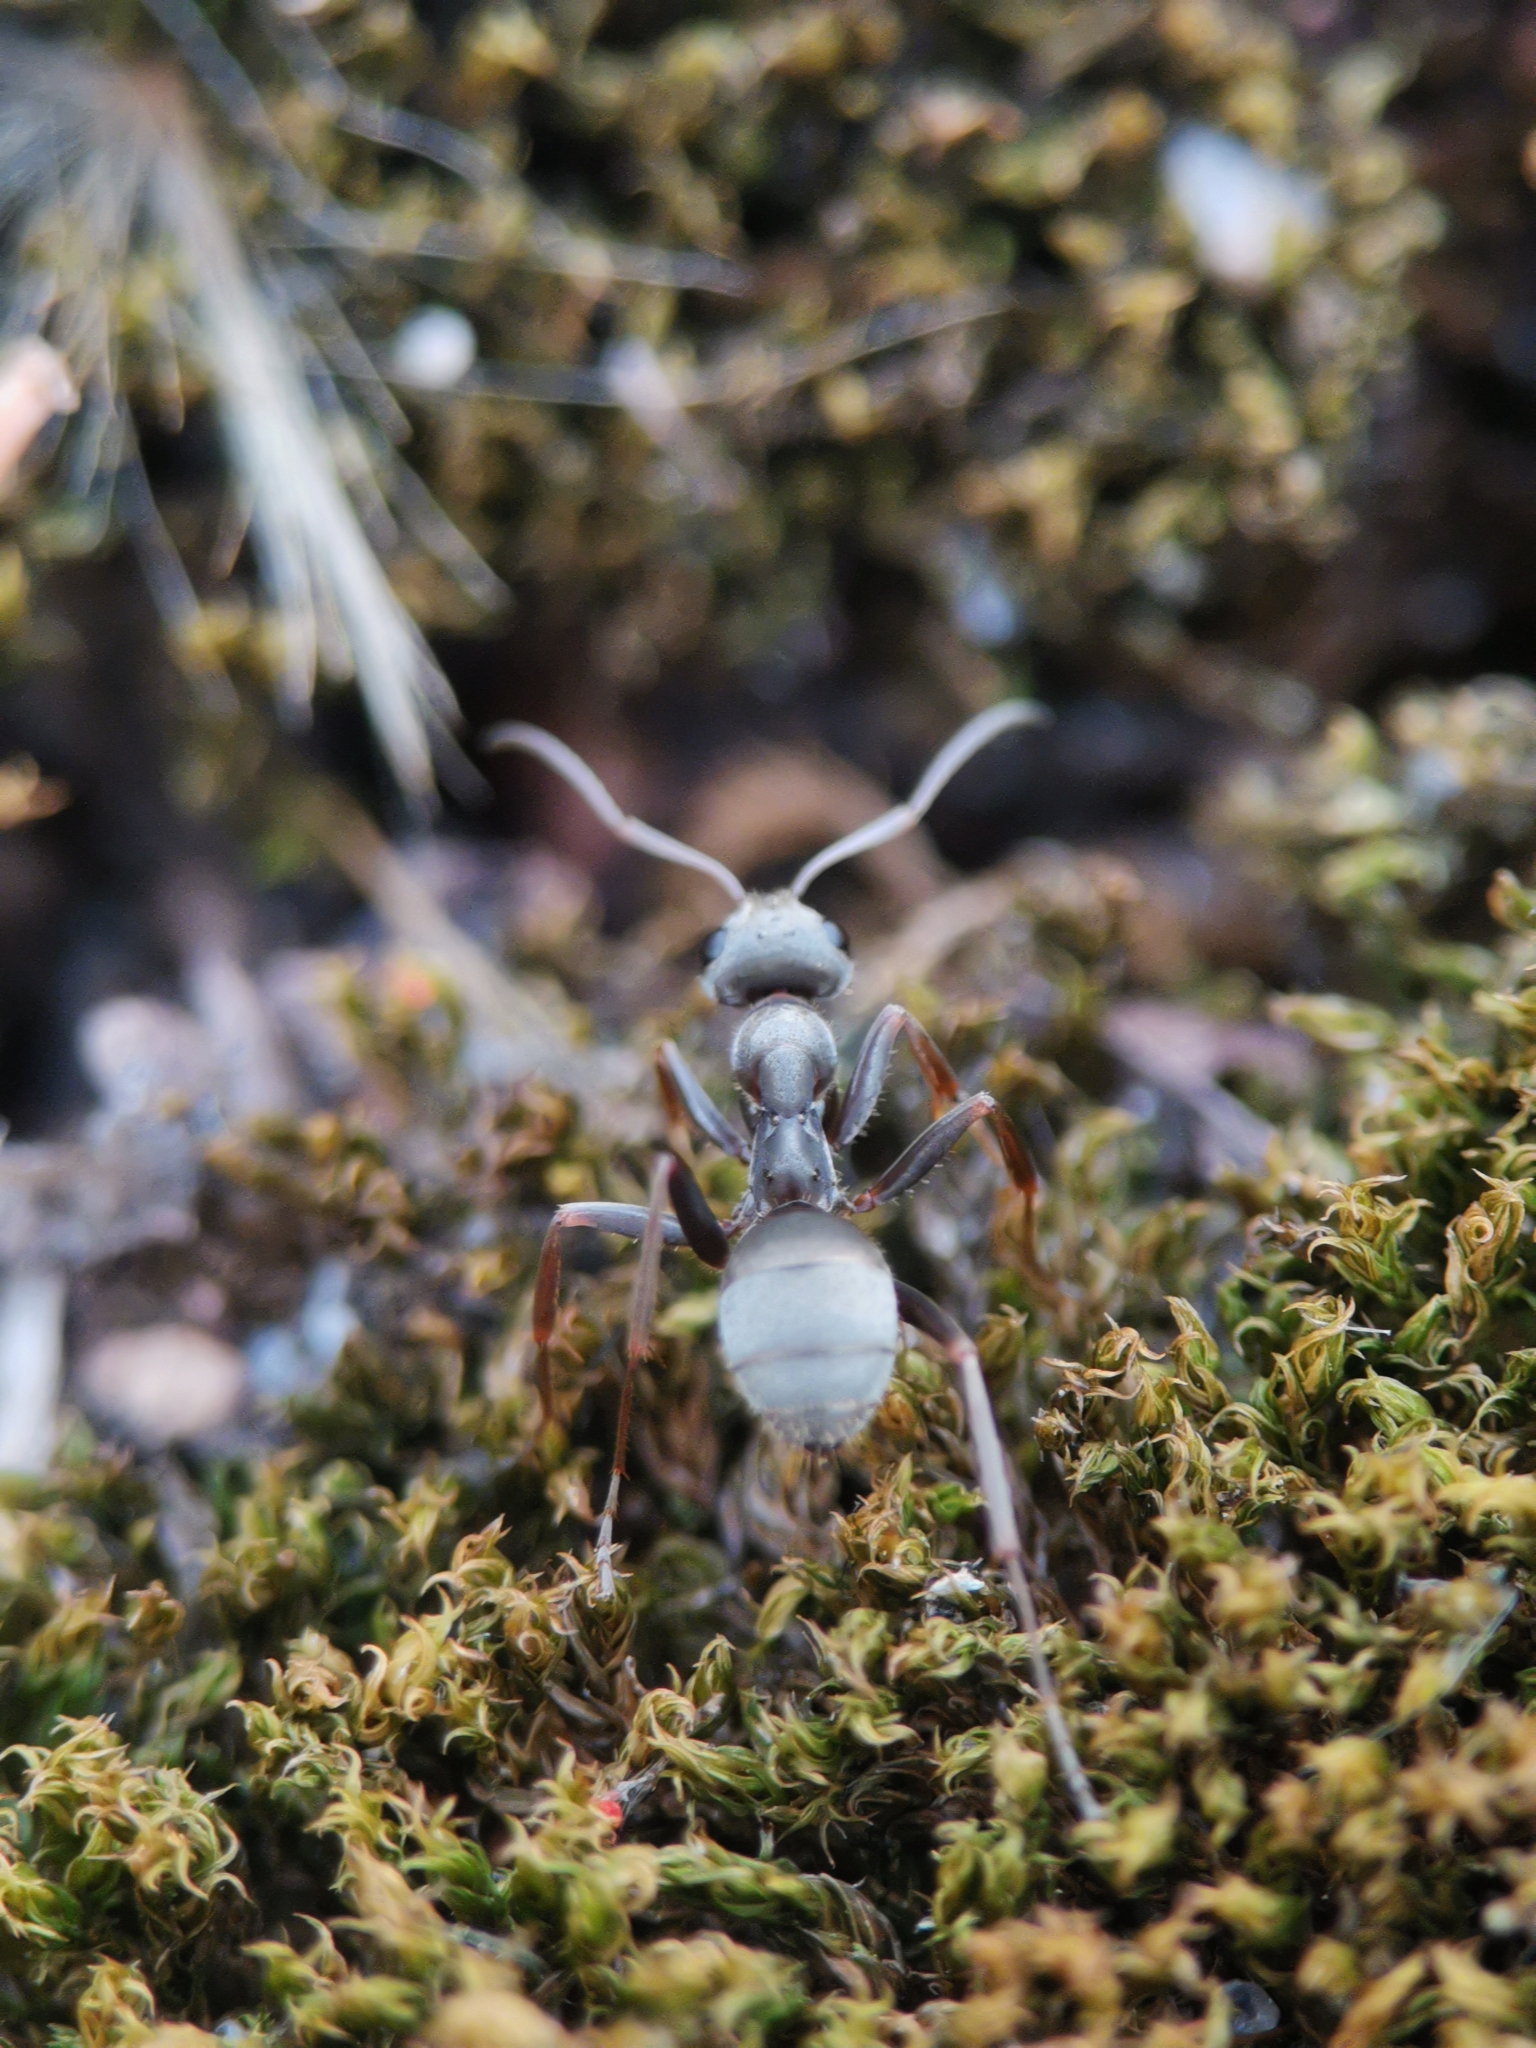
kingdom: Animalia
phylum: Arthropoda
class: Insecta
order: Hymenoptera
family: Formicidae
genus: Formica
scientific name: Formica cinerea
